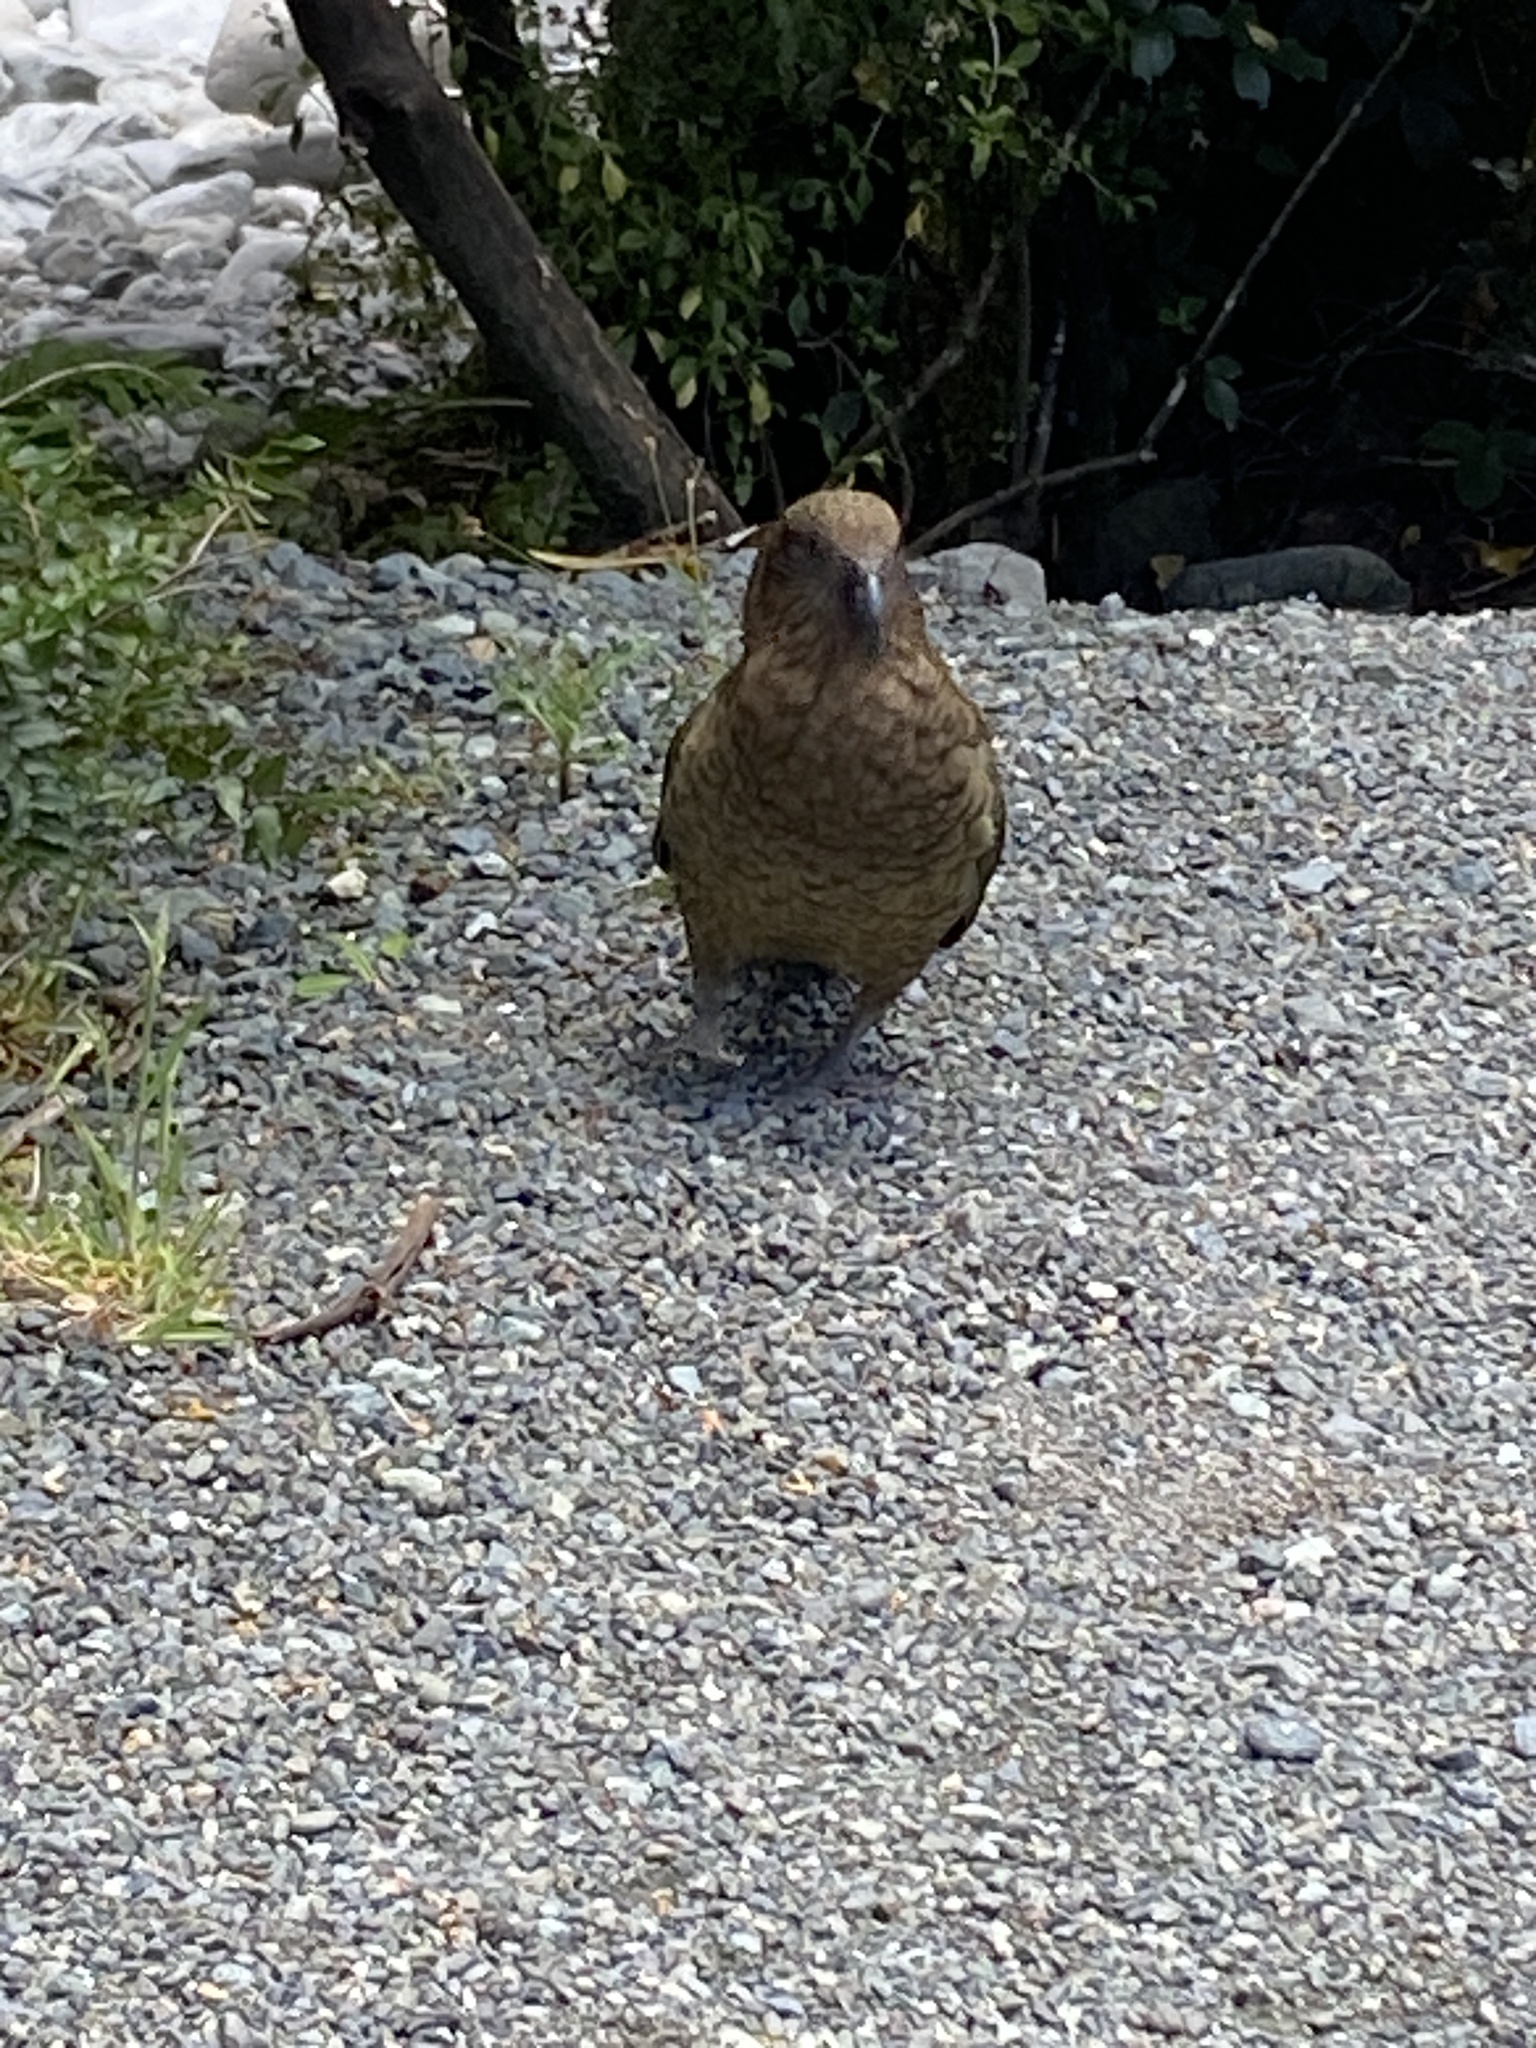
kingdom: Animalia
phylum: Chordata
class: Aves
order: Psittaciformes
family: Psittacidae
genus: Nestor
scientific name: Nestor notabilis
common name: Kea
